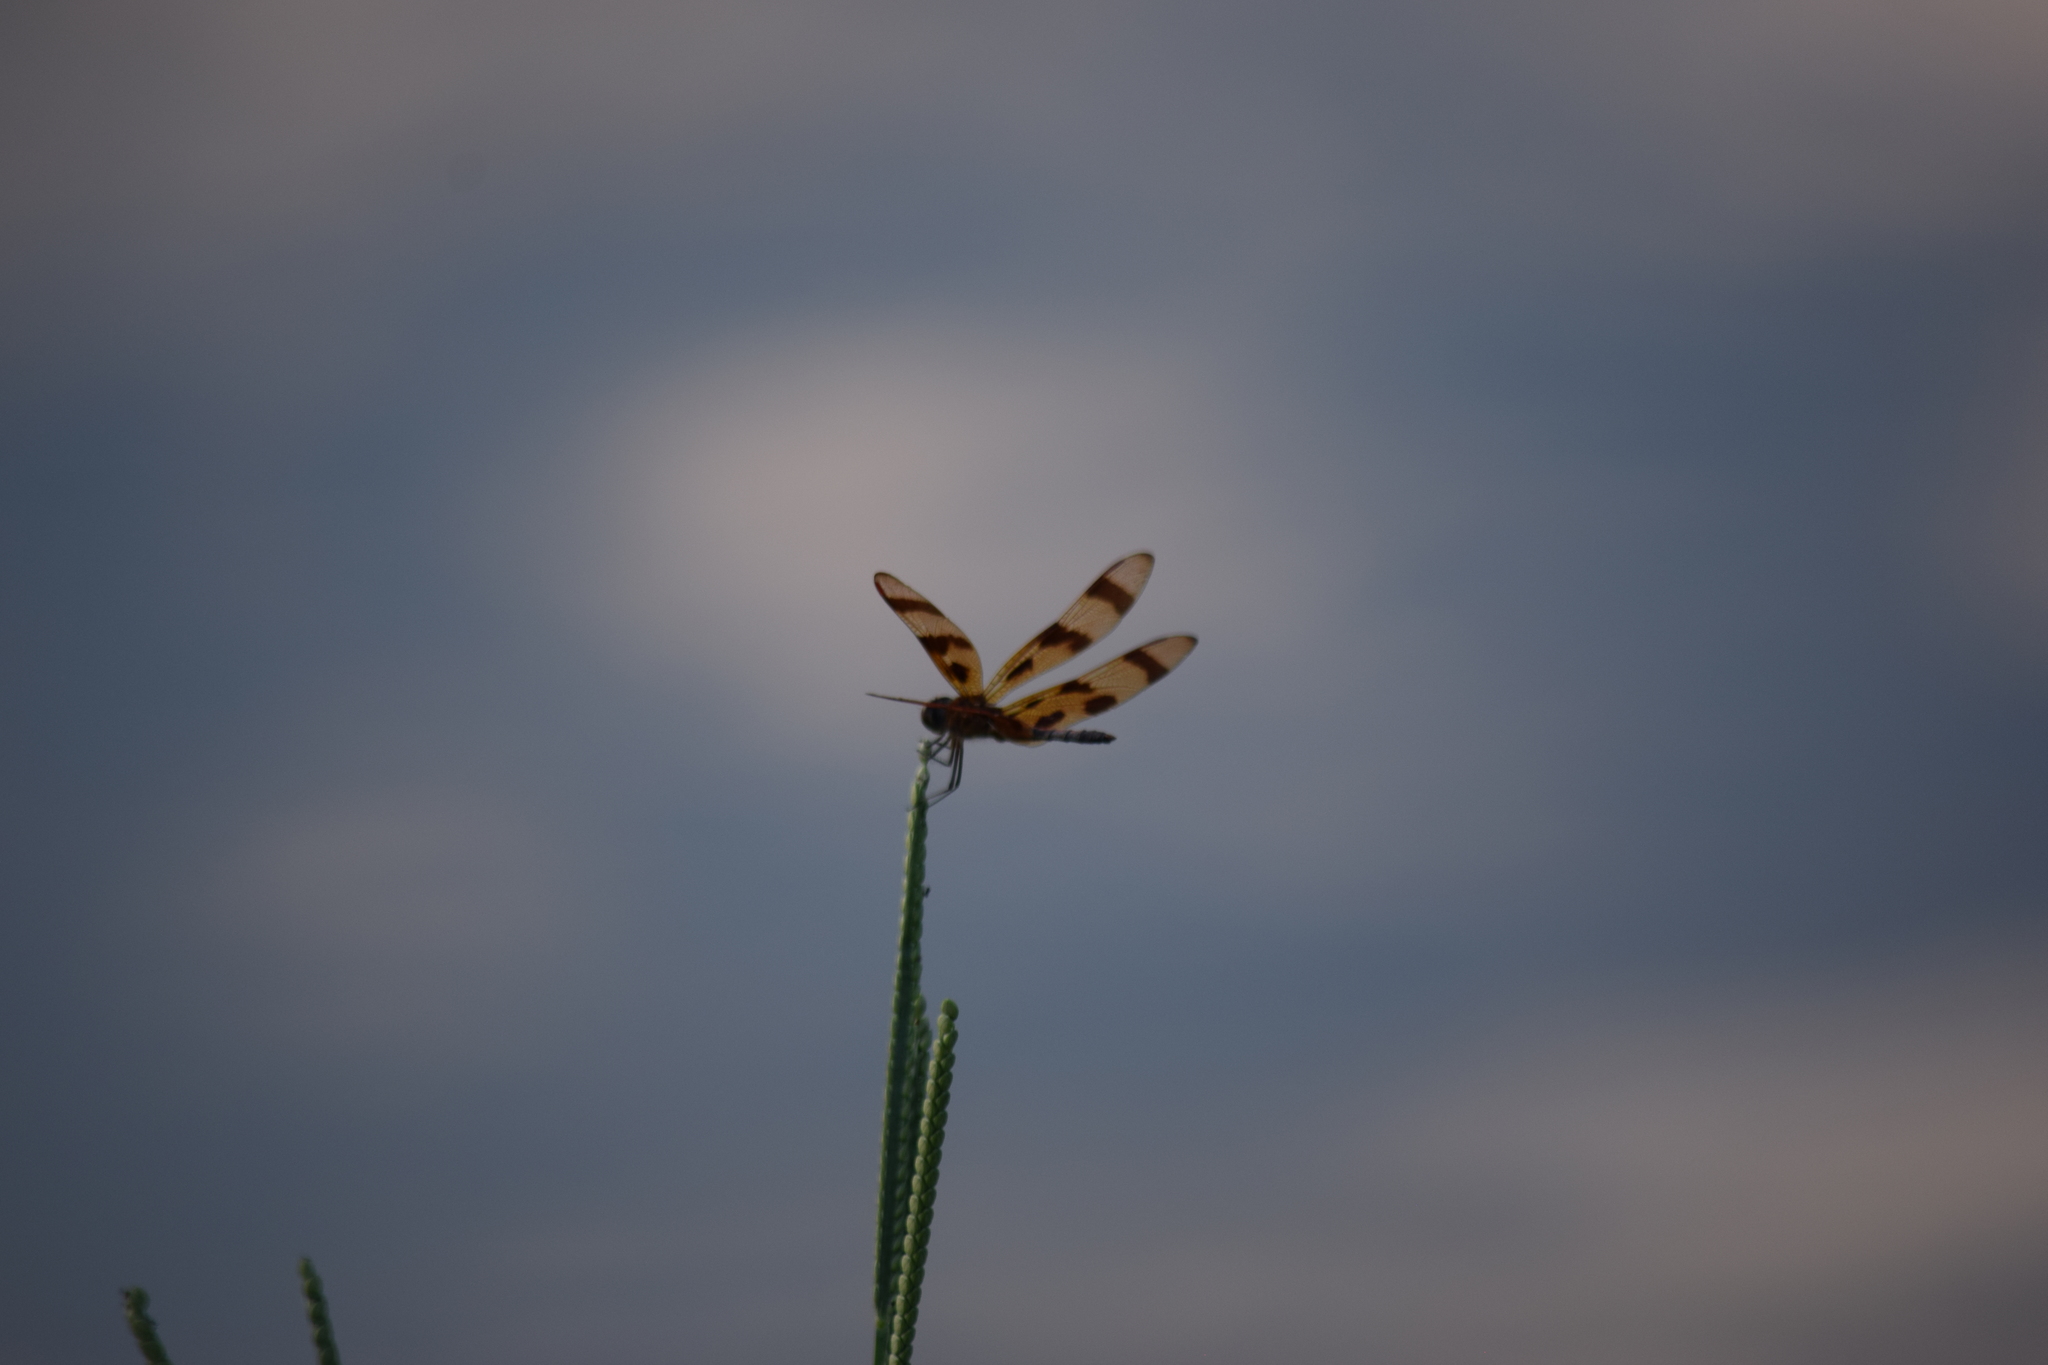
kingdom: Animalia
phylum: Arthropoda
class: Insecta
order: Odonata
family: Libellulidae
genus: Celithemis
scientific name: Celithemis eponina
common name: Halloween pennant
